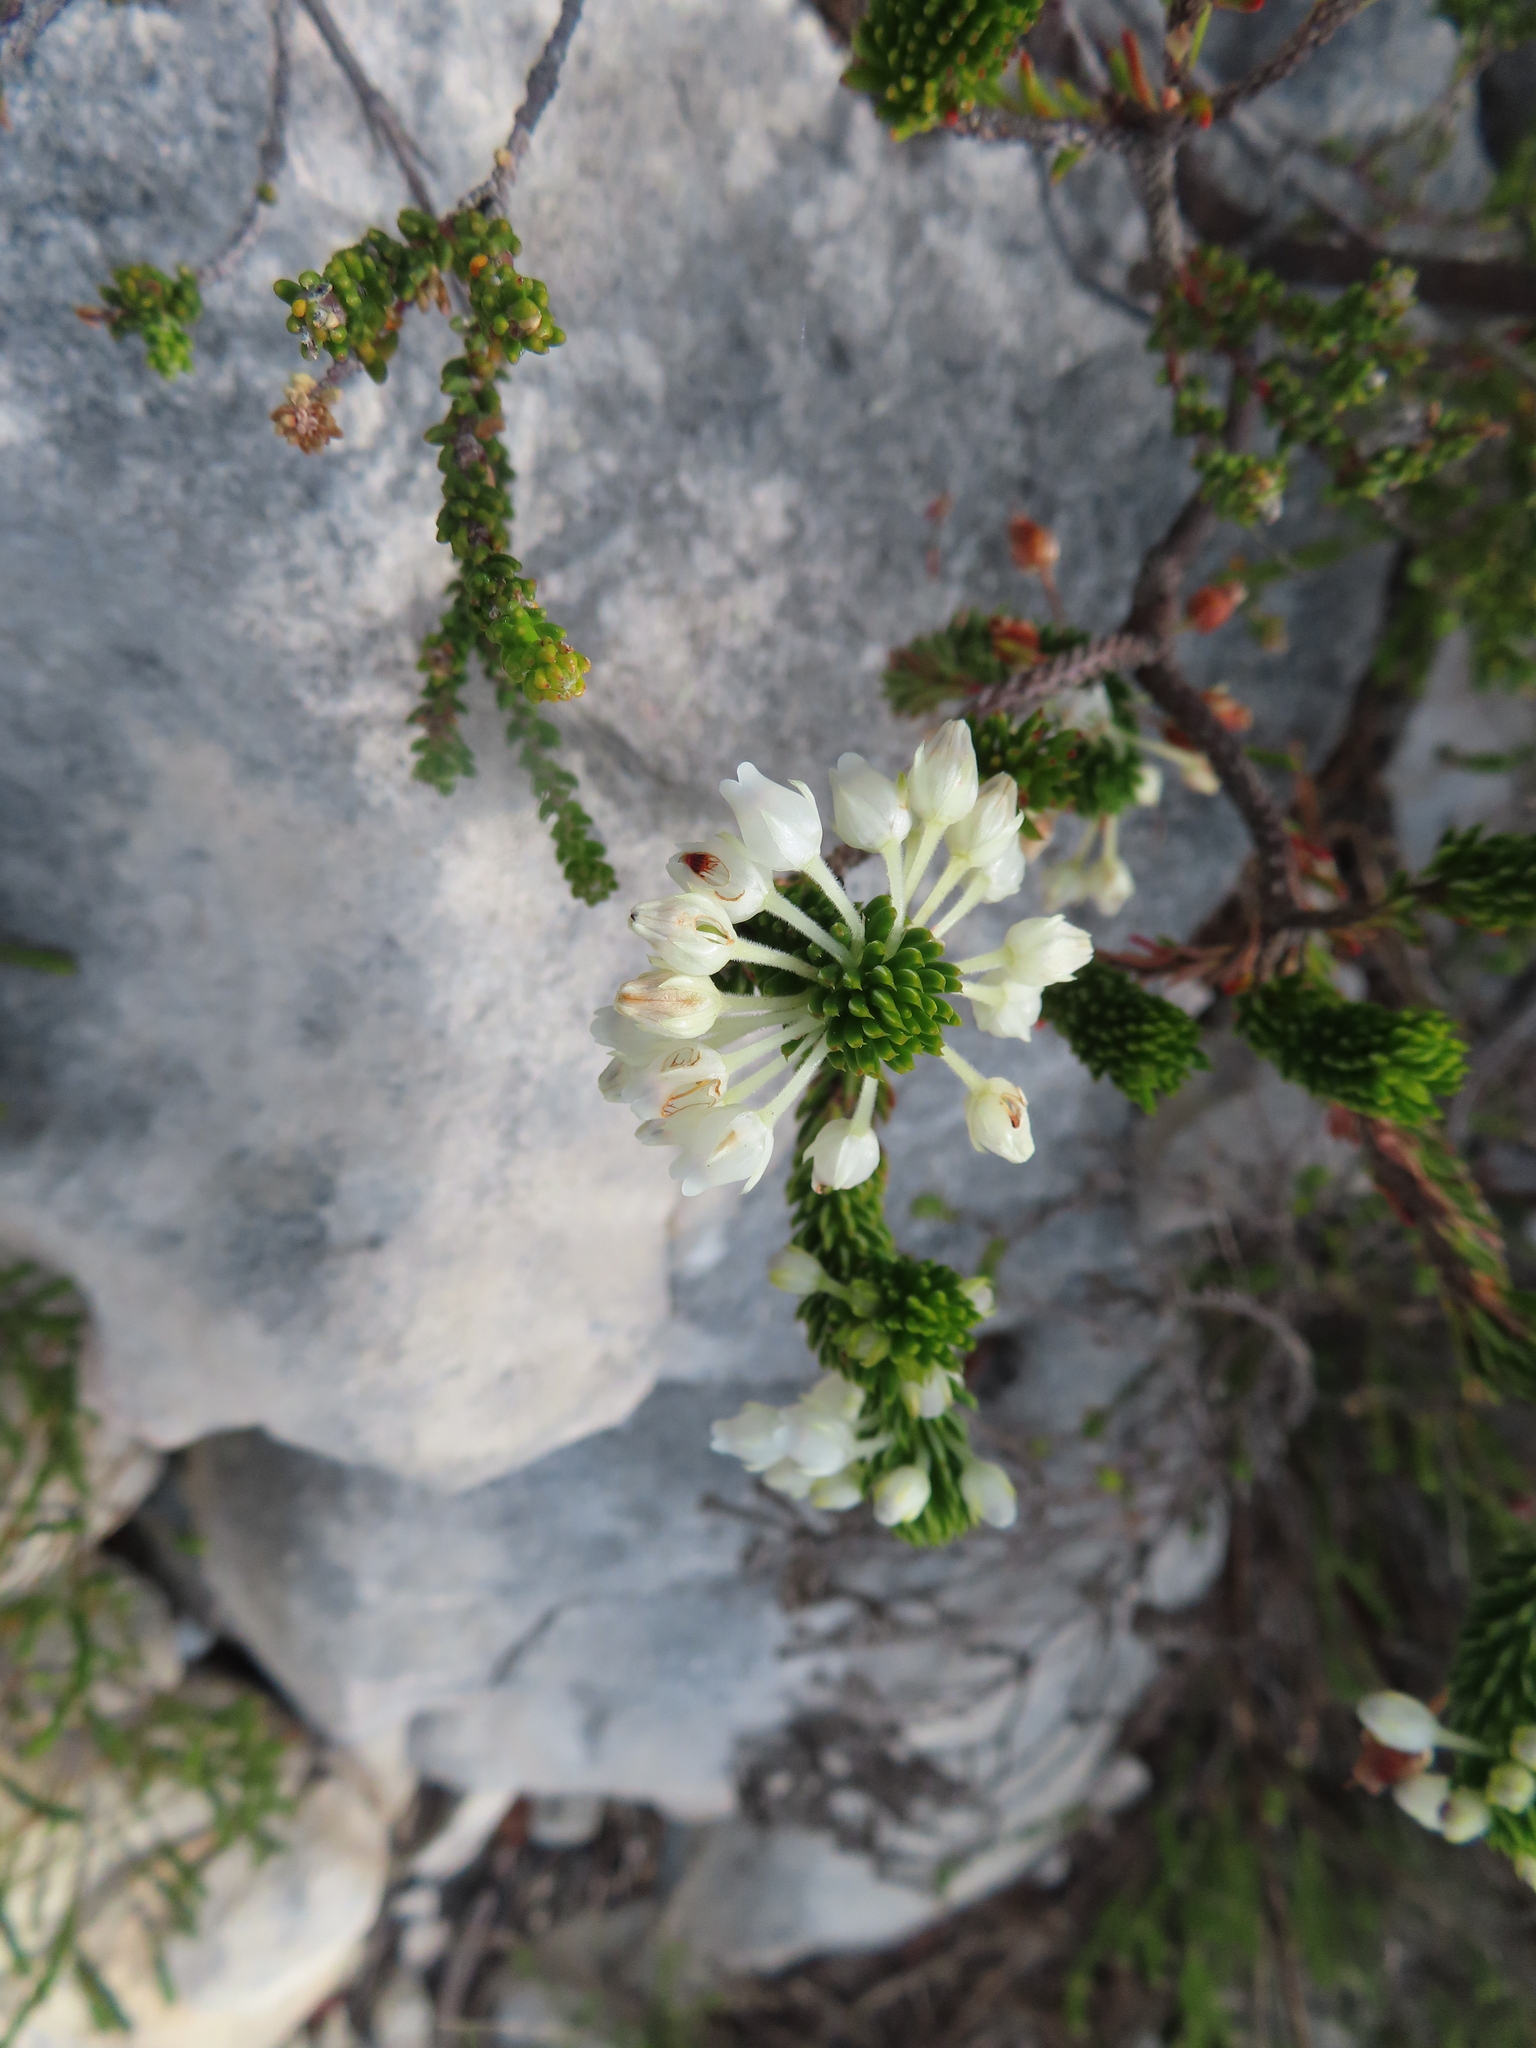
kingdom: Plantae
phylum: Tracheophyta
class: Magnoliopsida
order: Ericales
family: Ericaceae
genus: Erica
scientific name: Erica pulvinata
